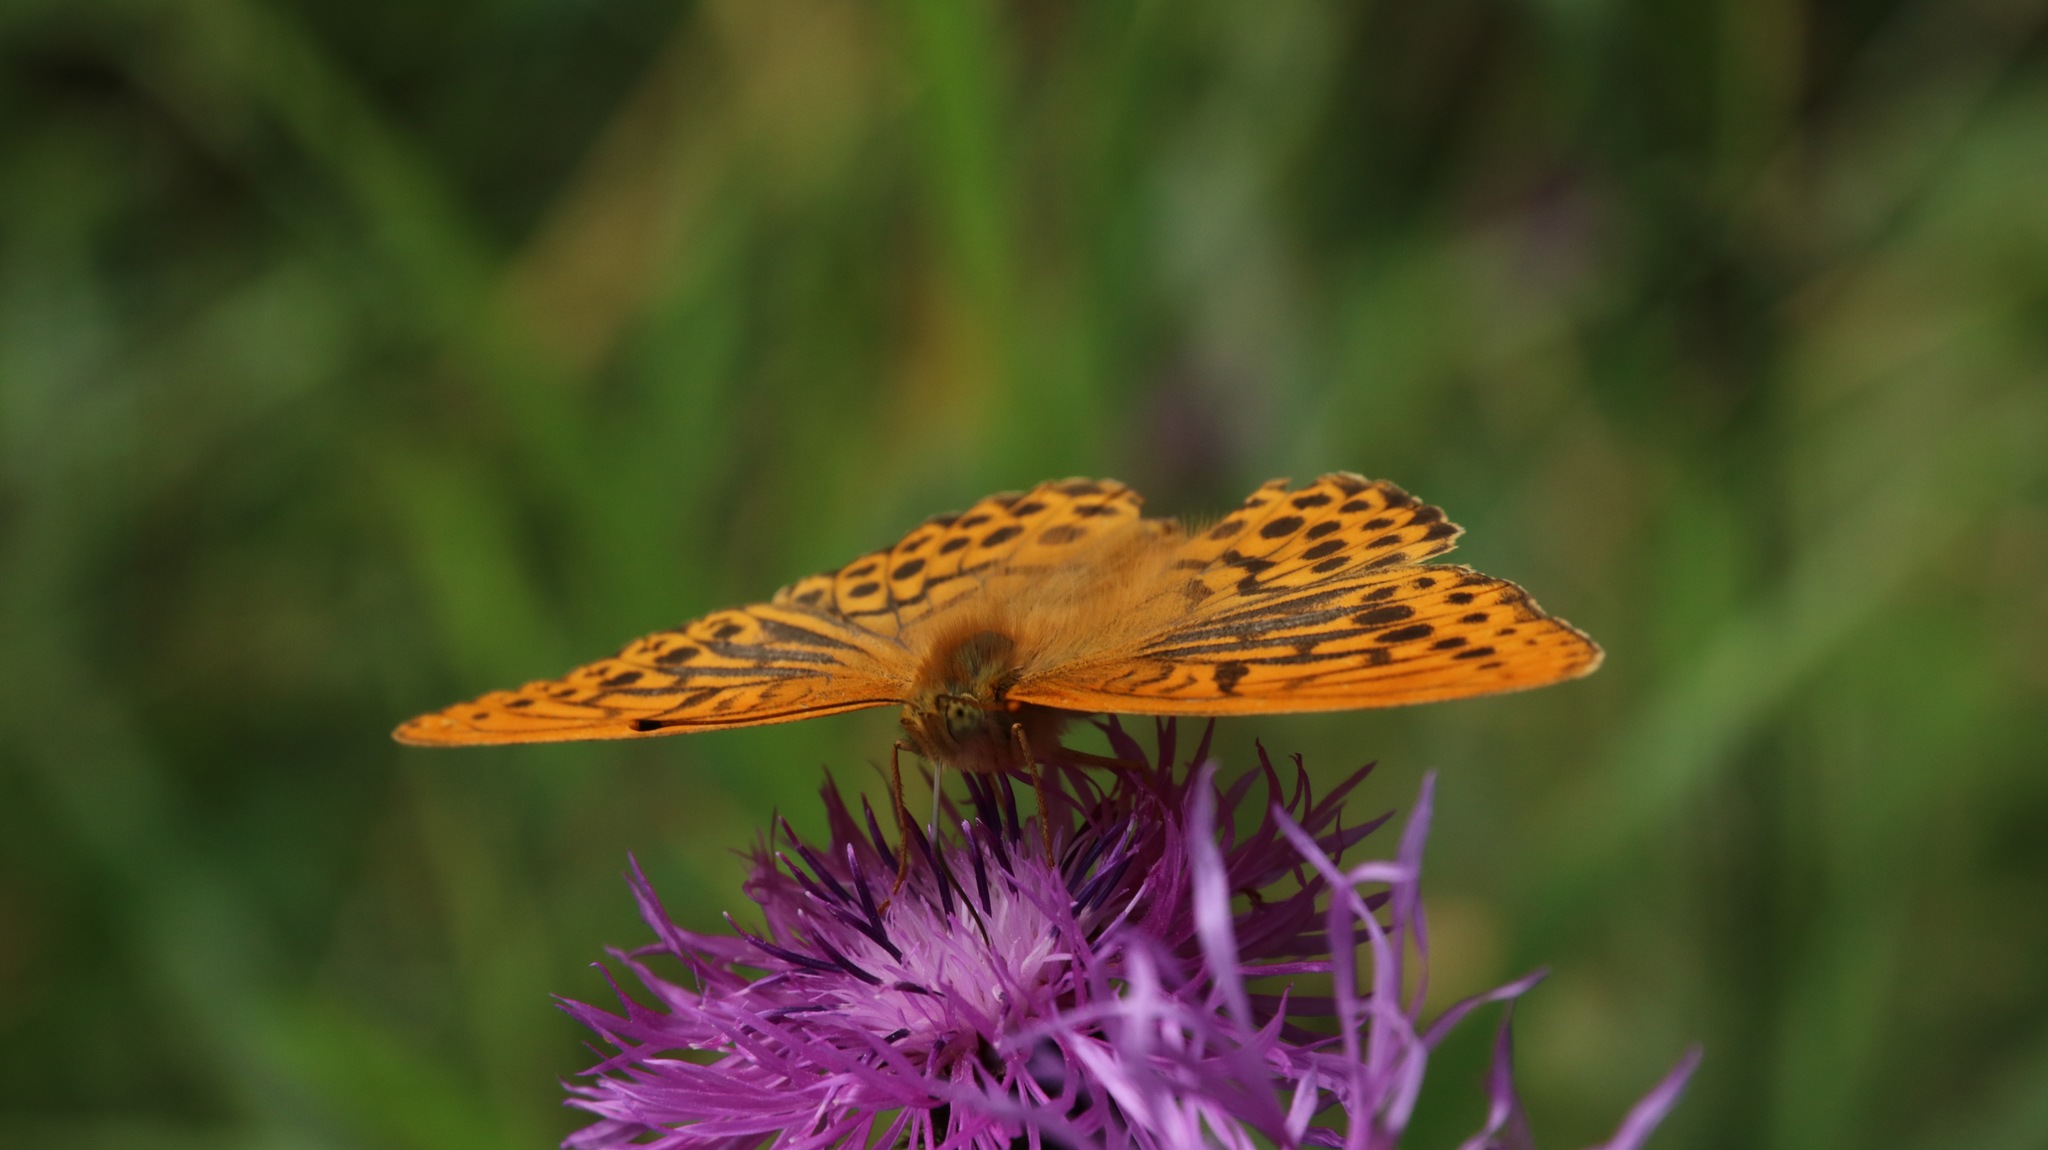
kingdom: Animalia
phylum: Arthropoda
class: Insecta
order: Lepidoptera
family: Nymphalidae
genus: Argynnis
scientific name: Argynnis paphia
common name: Silver-washed fritillary
